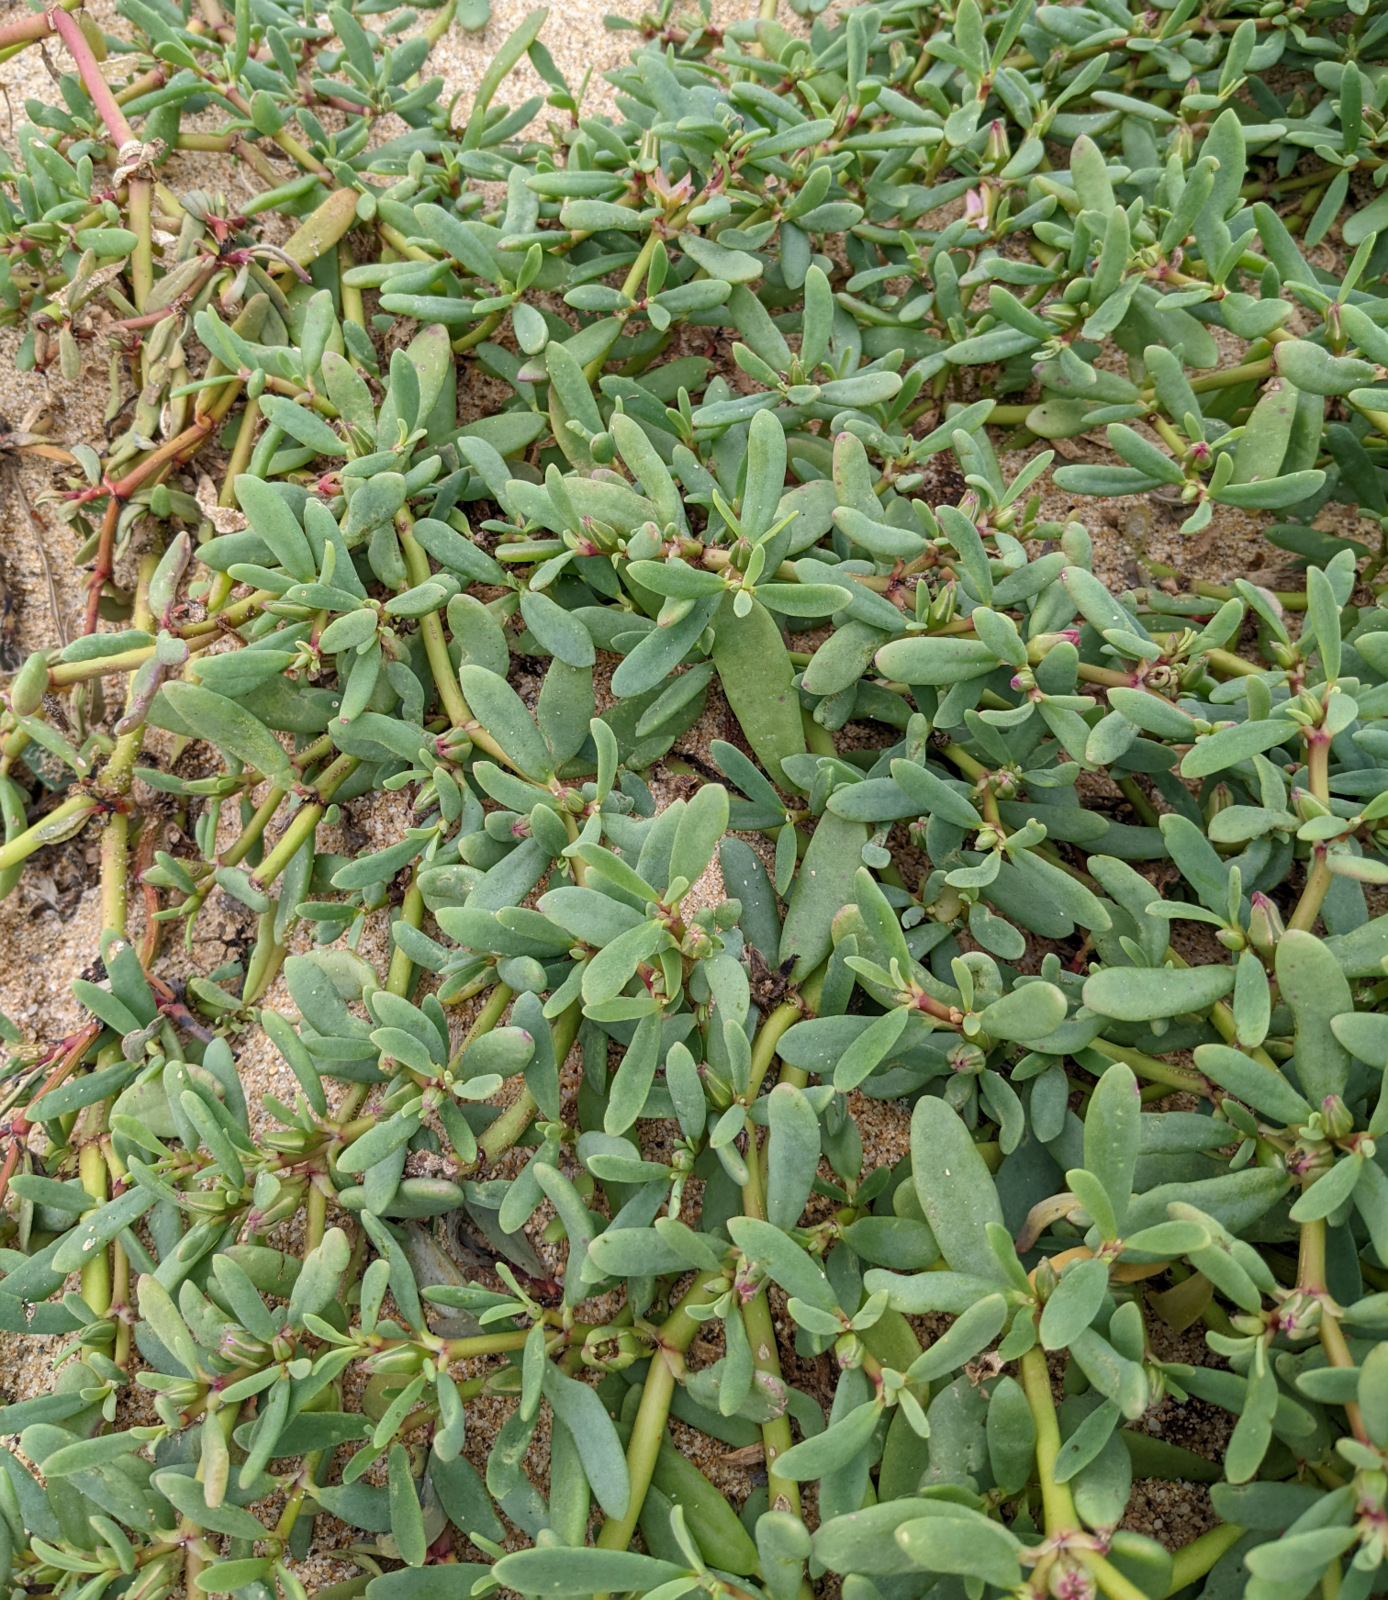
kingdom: Plantae
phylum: Tracheophyta
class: Magnoliopsida
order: Caryophyllales
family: Aizoaceae
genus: Sesuvium
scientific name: Sesuvium portulacastrum
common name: Sea-purslane
